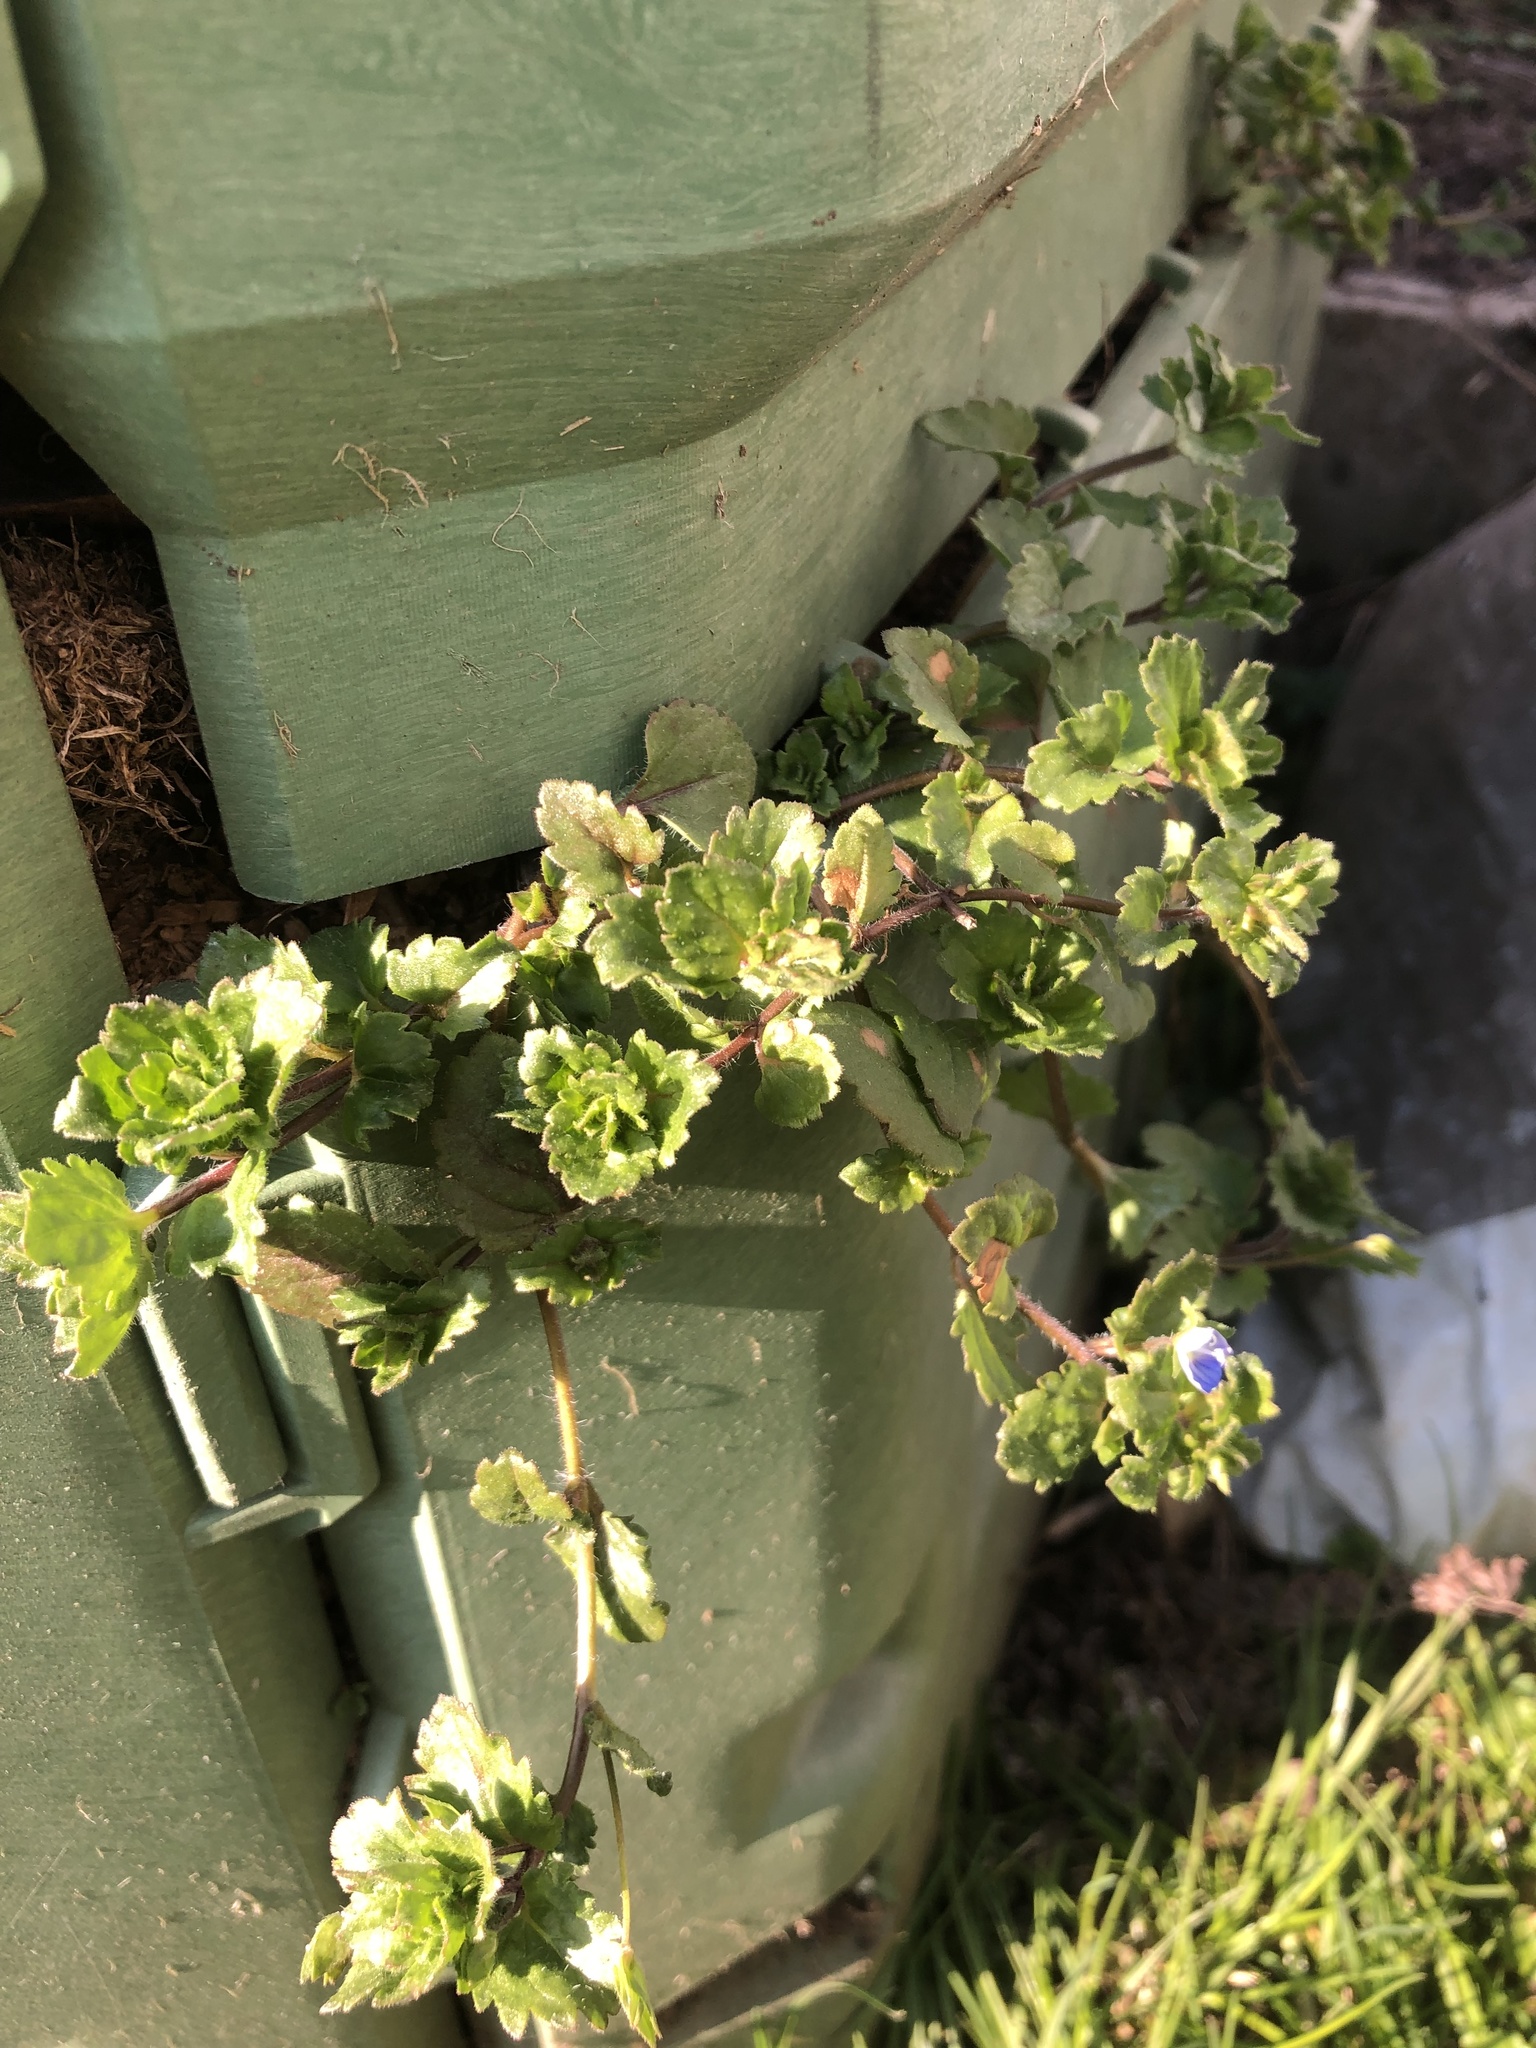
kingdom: Plantae
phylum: Tracheophyta
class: Magnoliopsida
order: Lamiales
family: Plantaginaceae
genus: Veronica
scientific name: Veronica persica
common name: Common field-speedwell
